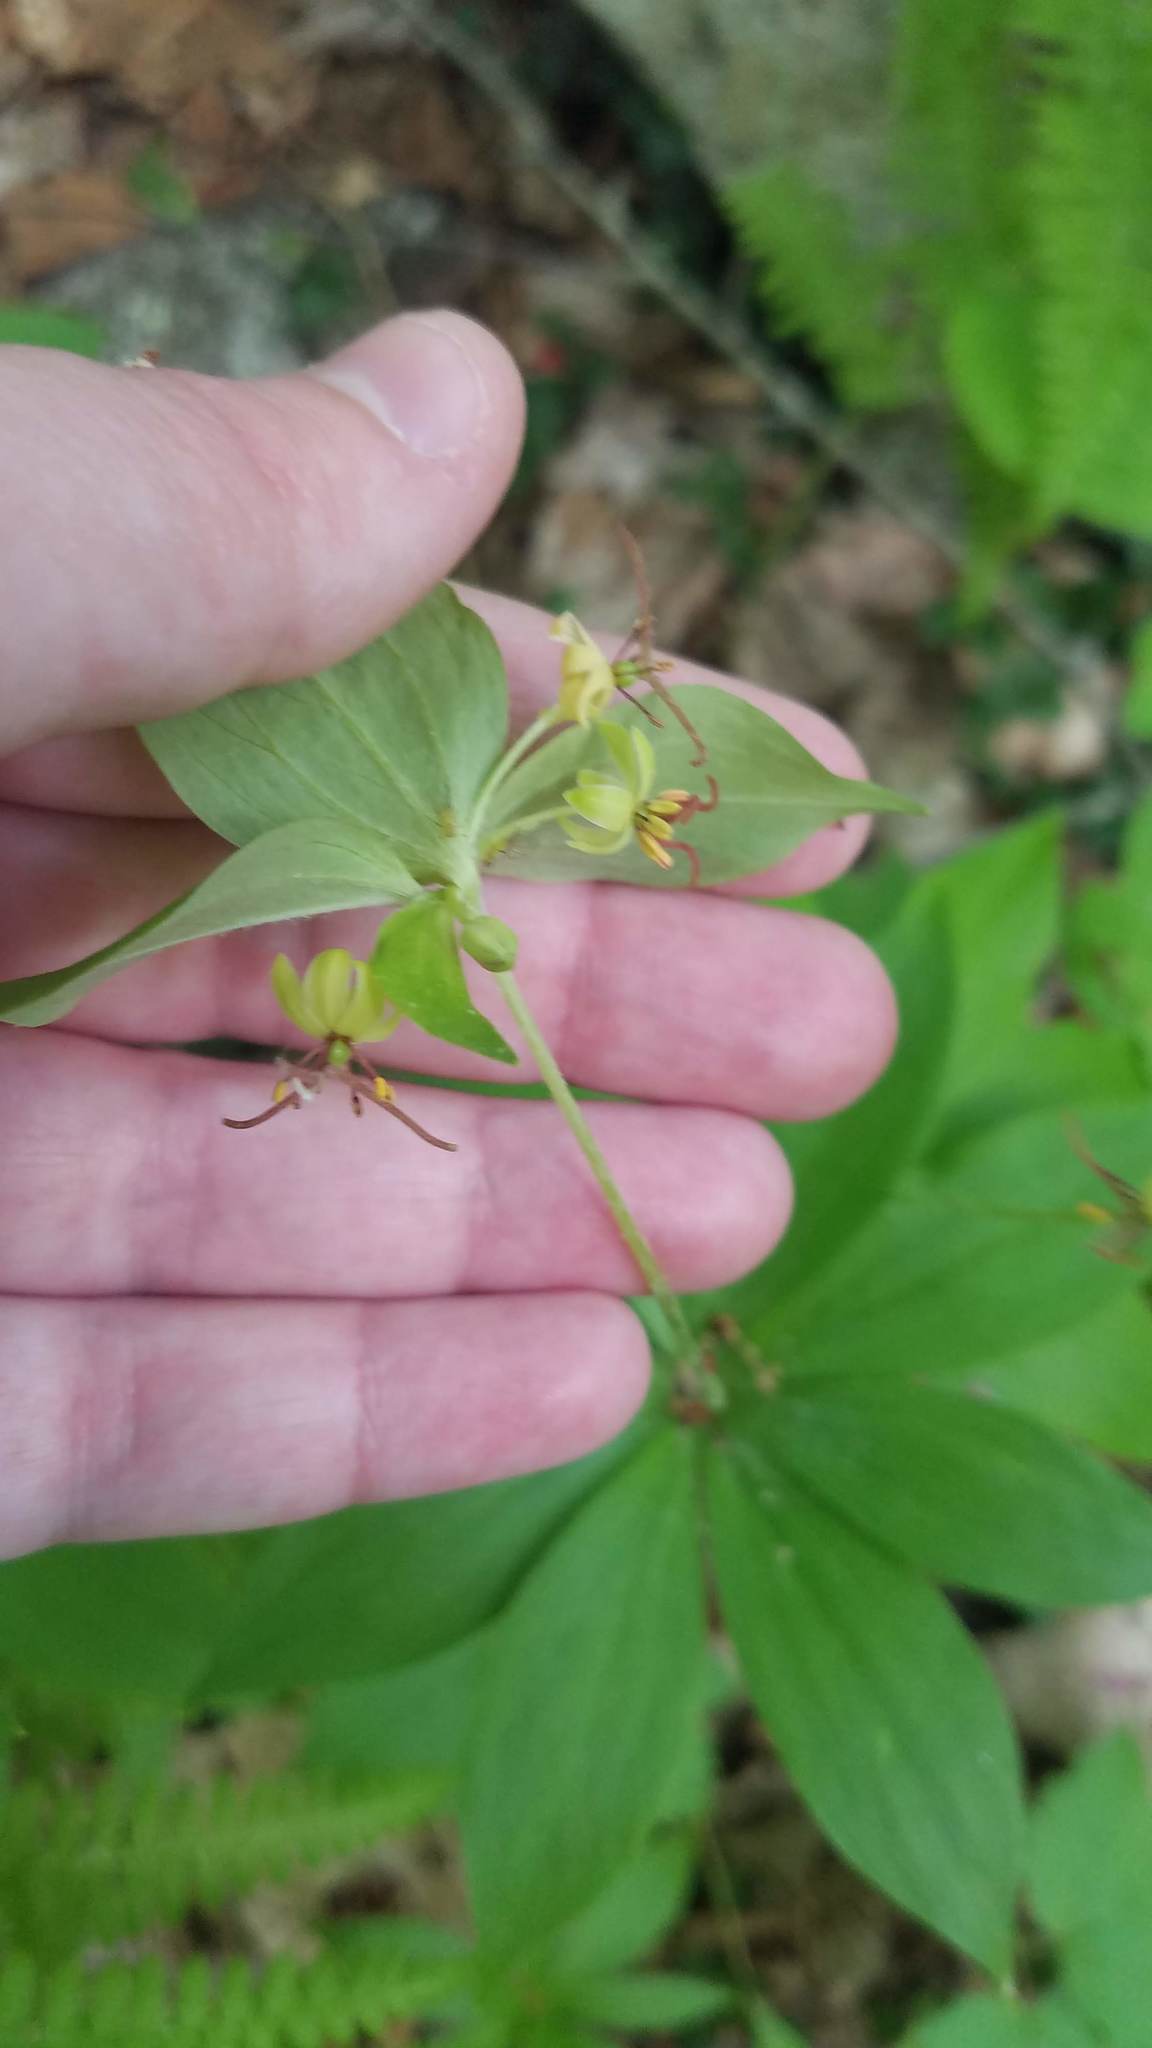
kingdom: Plantae
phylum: Tracheophyta
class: Liliopsida
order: Liliales
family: Liliaceae
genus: Medeola
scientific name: Medeola virginiana
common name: Indian cucumber-root
